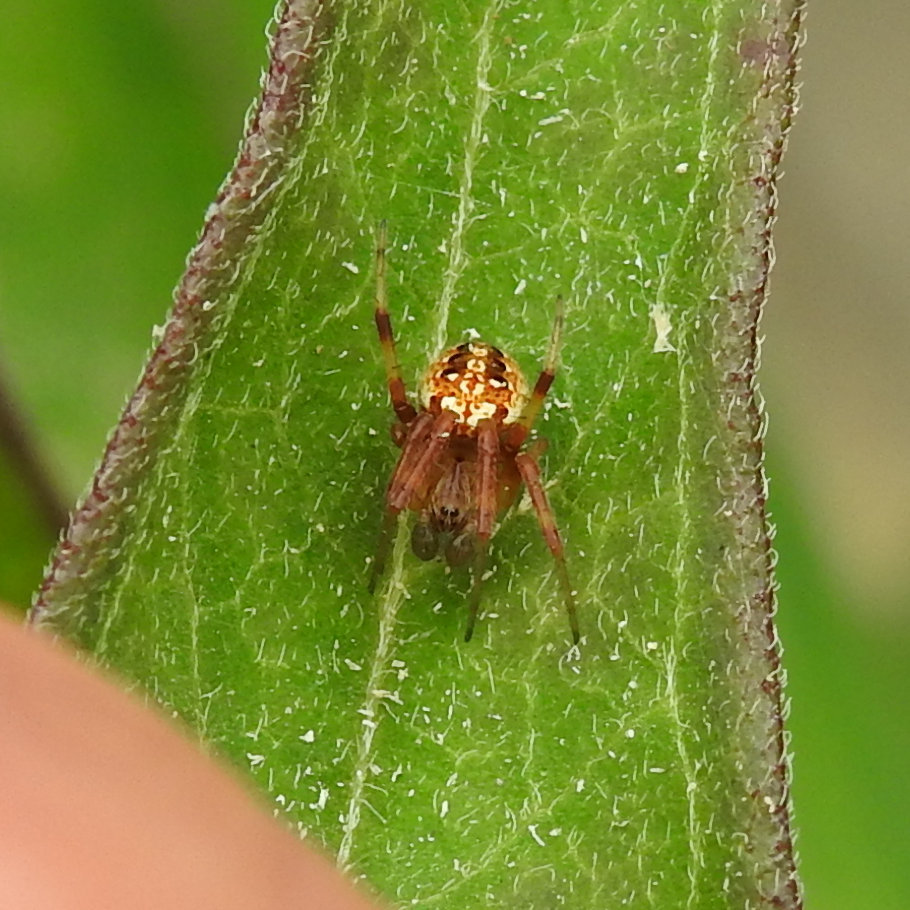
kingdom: Animalia
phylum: Arthropoda
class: Arachnida
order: Araneae
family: Araneidae
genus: Neoscona
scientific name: Neoscona arabesca
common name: Orb weavers
